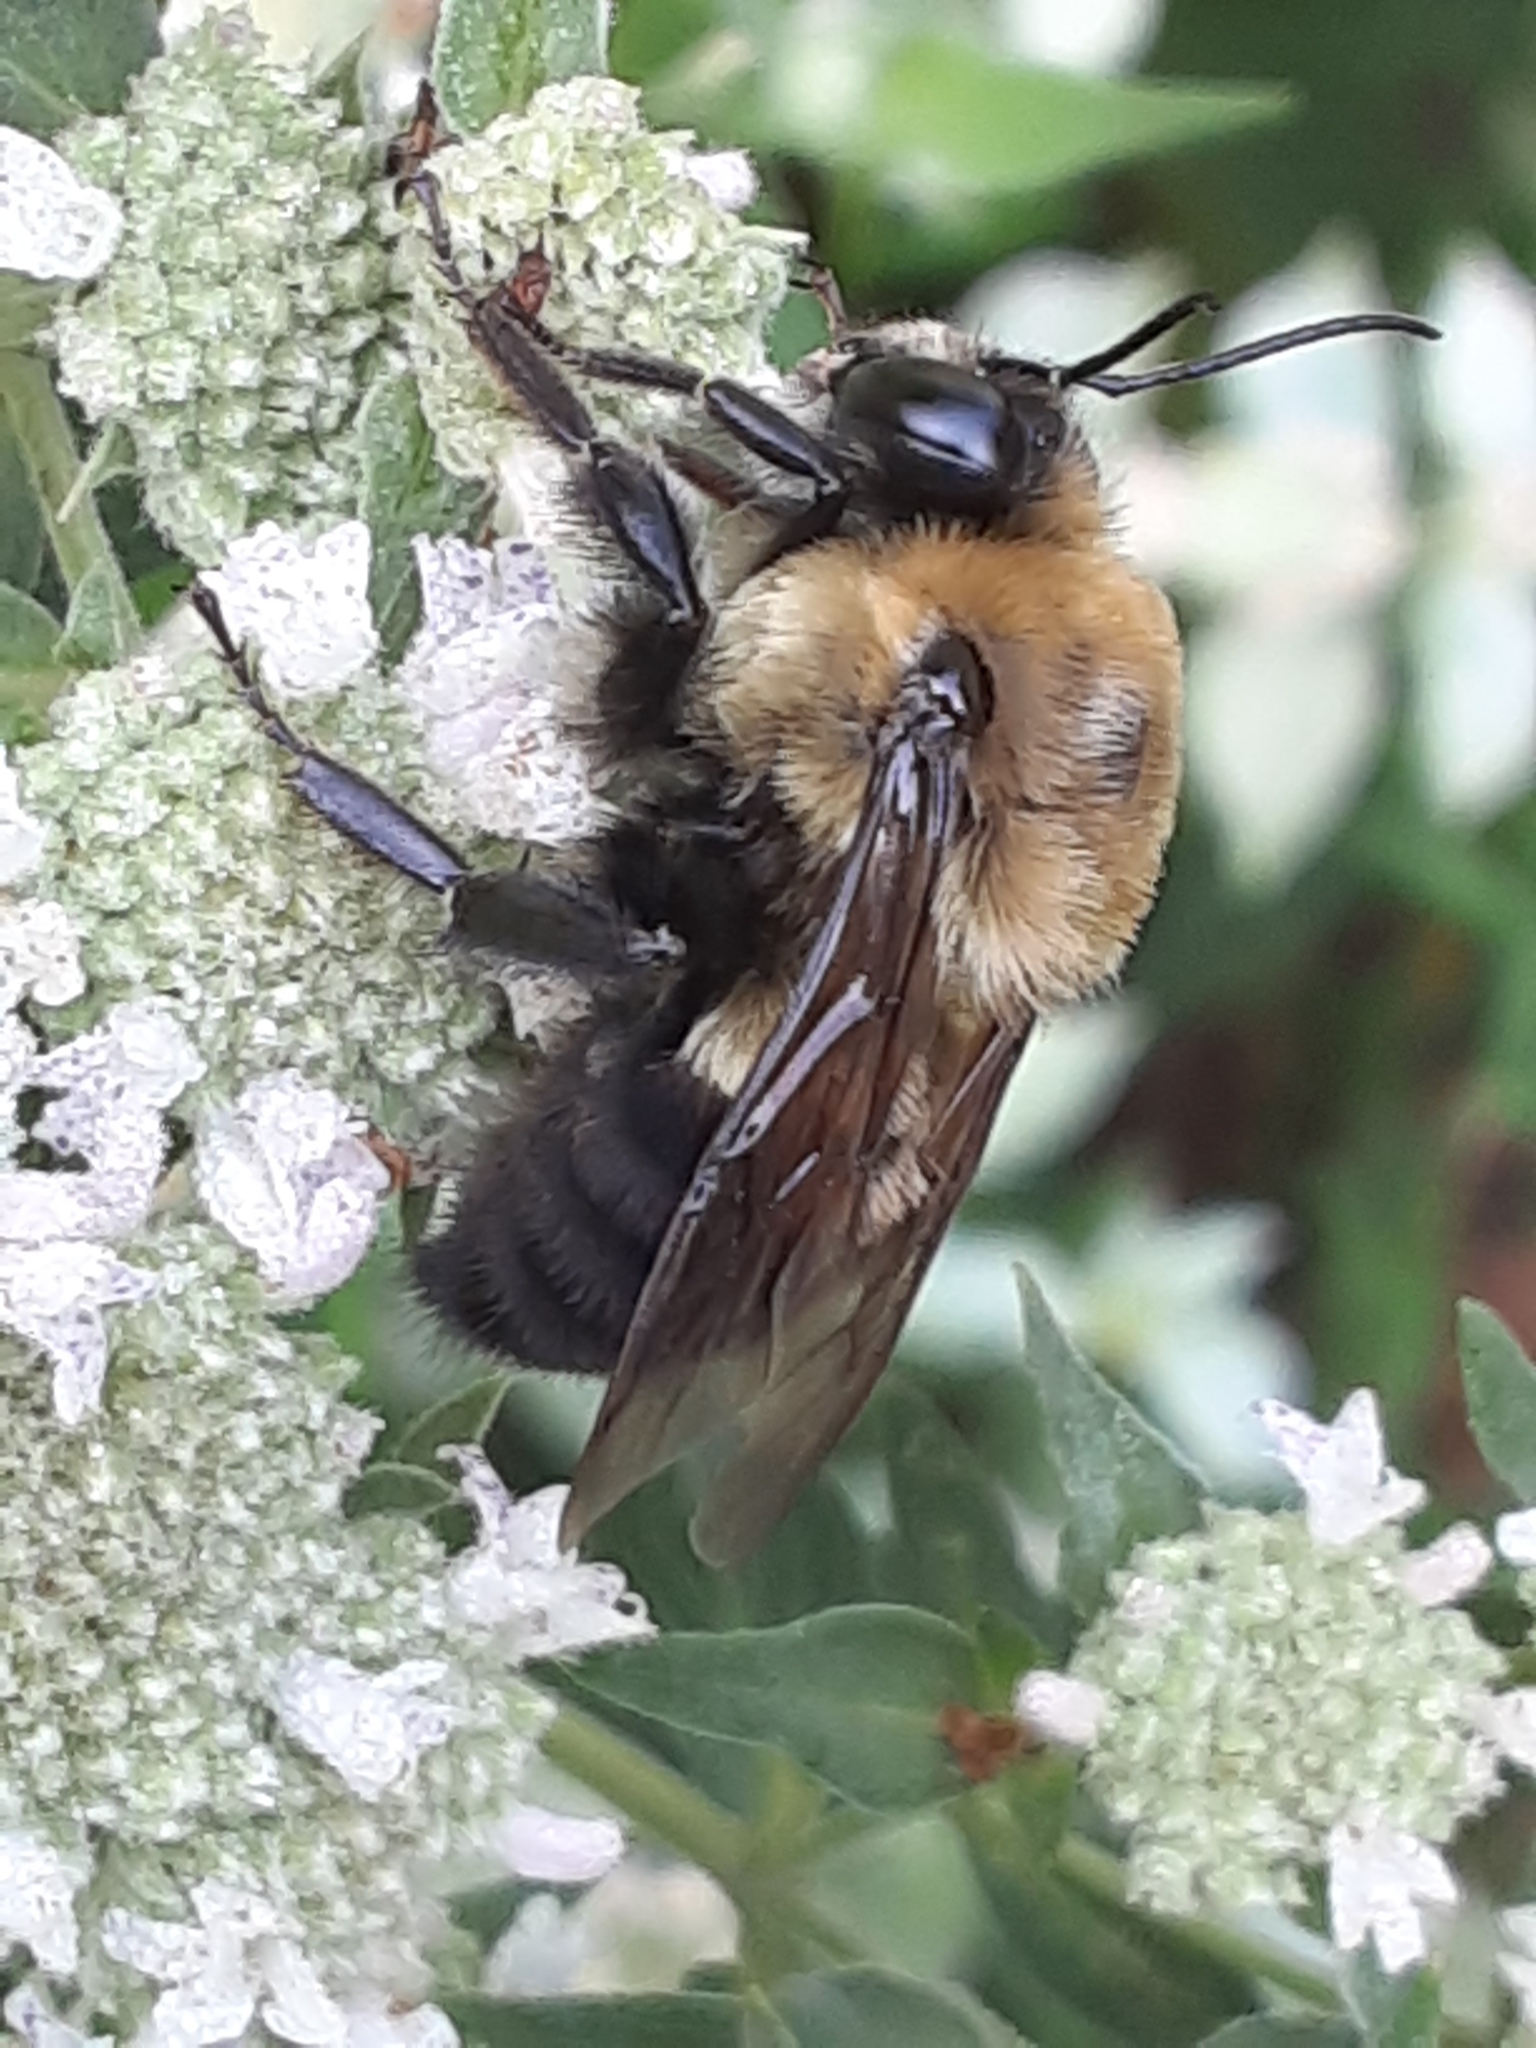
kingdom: Animalia
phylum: Arthropoda
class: Insecta
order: Hymenoptera
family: Apidae
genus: Bombus
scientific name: Bombus griseocollis
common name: Brown-belted bumble bee
